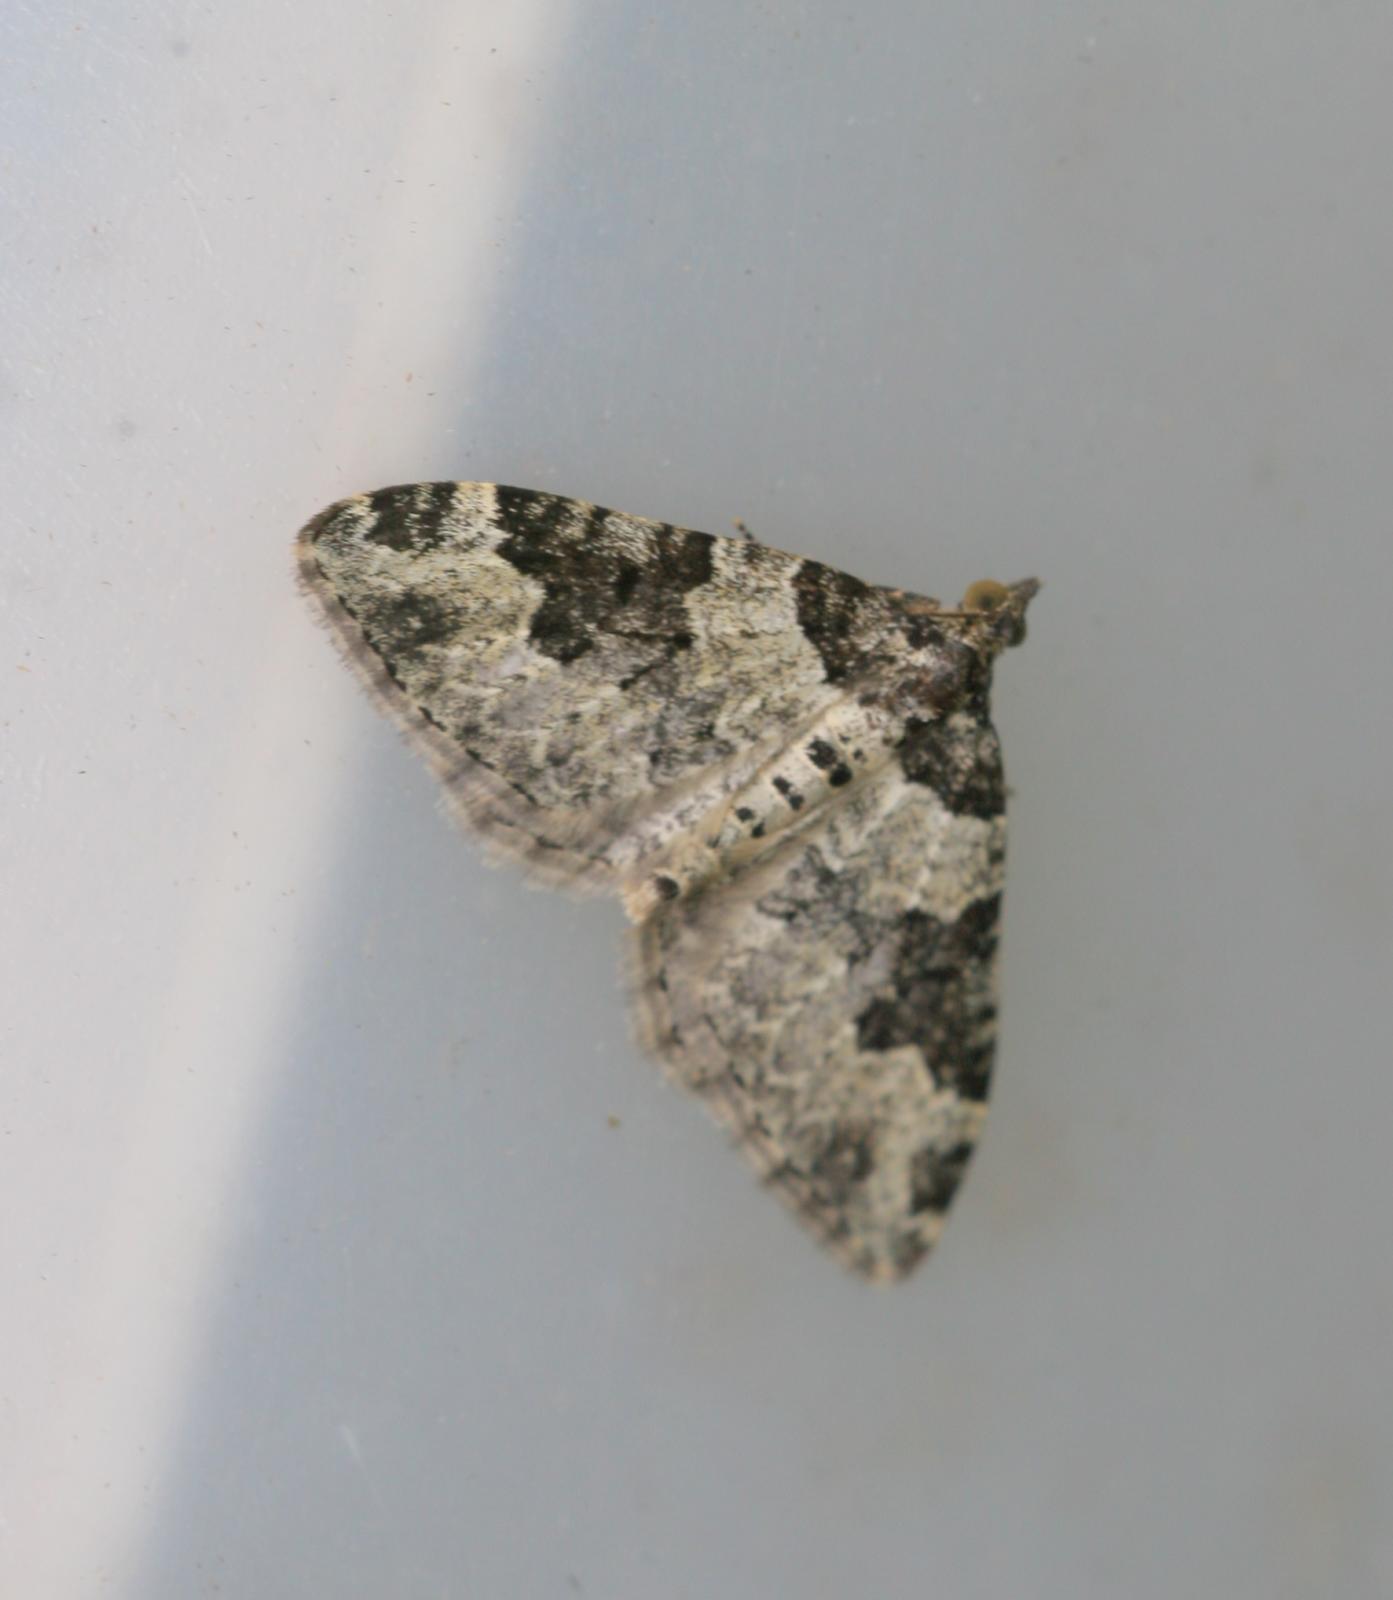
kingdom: Animalia
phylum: Arthropoda
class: Insecta
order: Lepidoptera
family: Geometridae
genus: Xanthorhoe
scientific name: Xanthorhoe fluctuata
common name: Garden carpet
